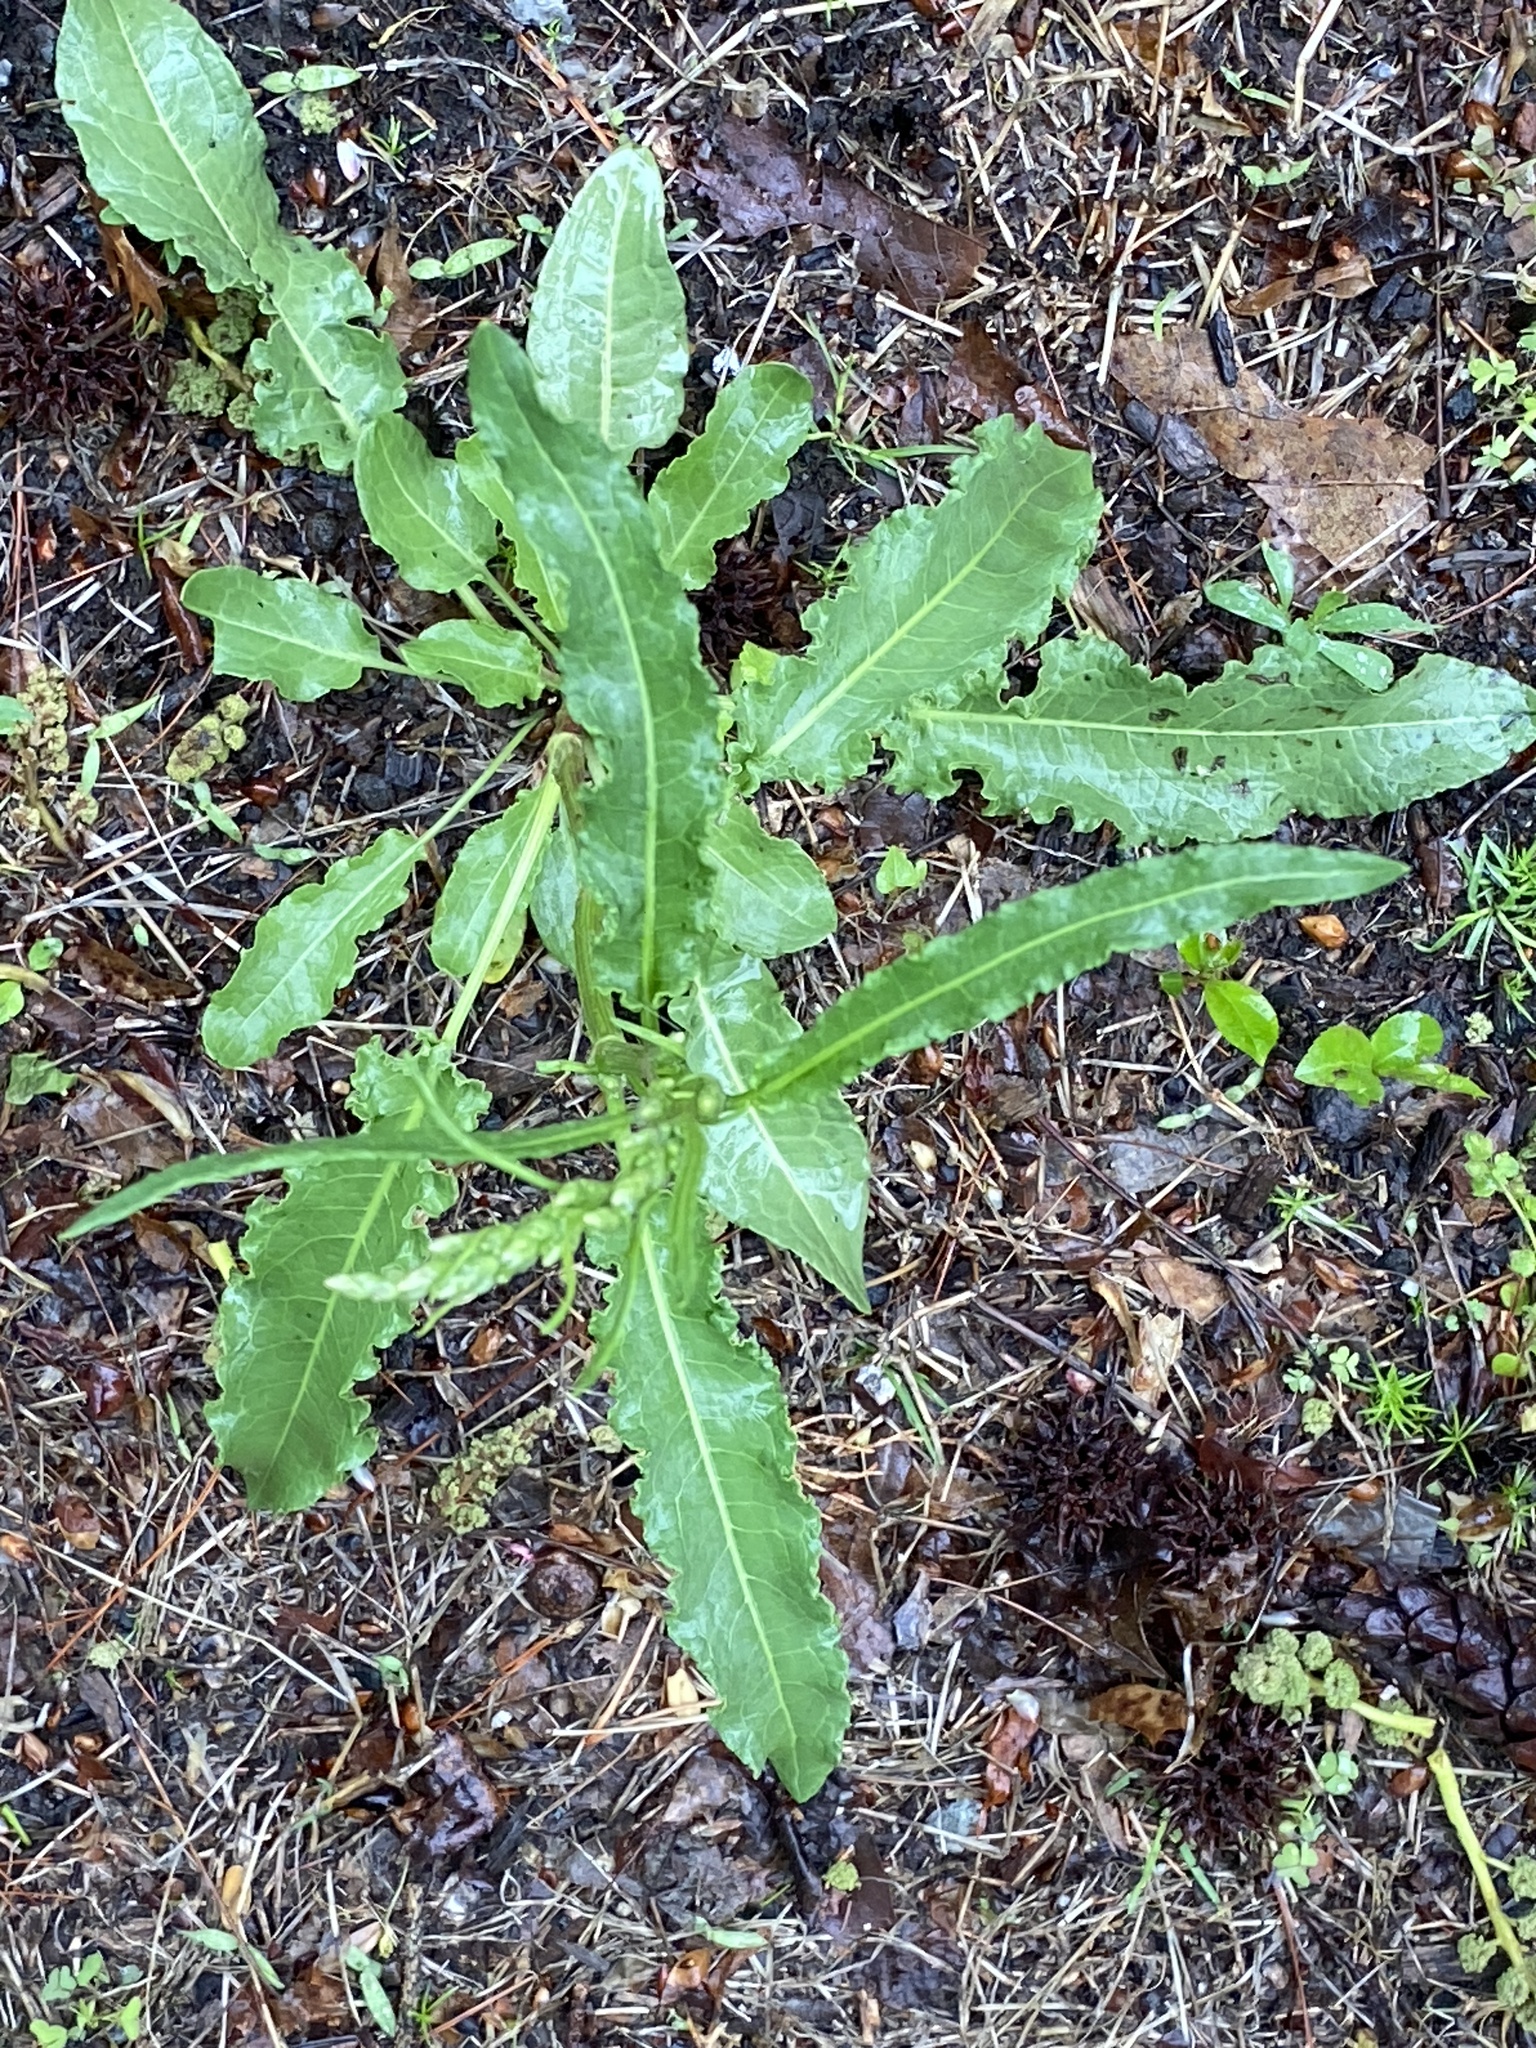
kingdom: Plantae
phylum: Tracheophyta
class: Magnoliopsida
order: Caryophyllales
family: Polygonaceae
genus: Rumex
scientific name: Rumex crispus
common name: Curled dock
